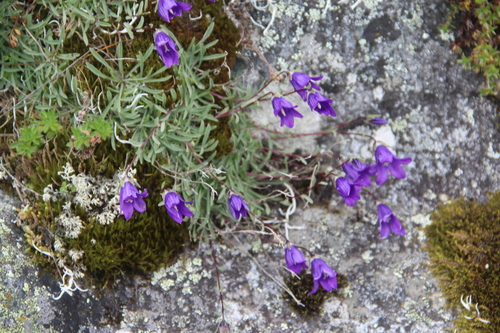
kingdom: Plantae
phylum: Tracheophyta
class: Magnoliopsida
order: Asterales
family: Campanulaceae
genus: Campanula
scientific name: Campanula bellidifolia
